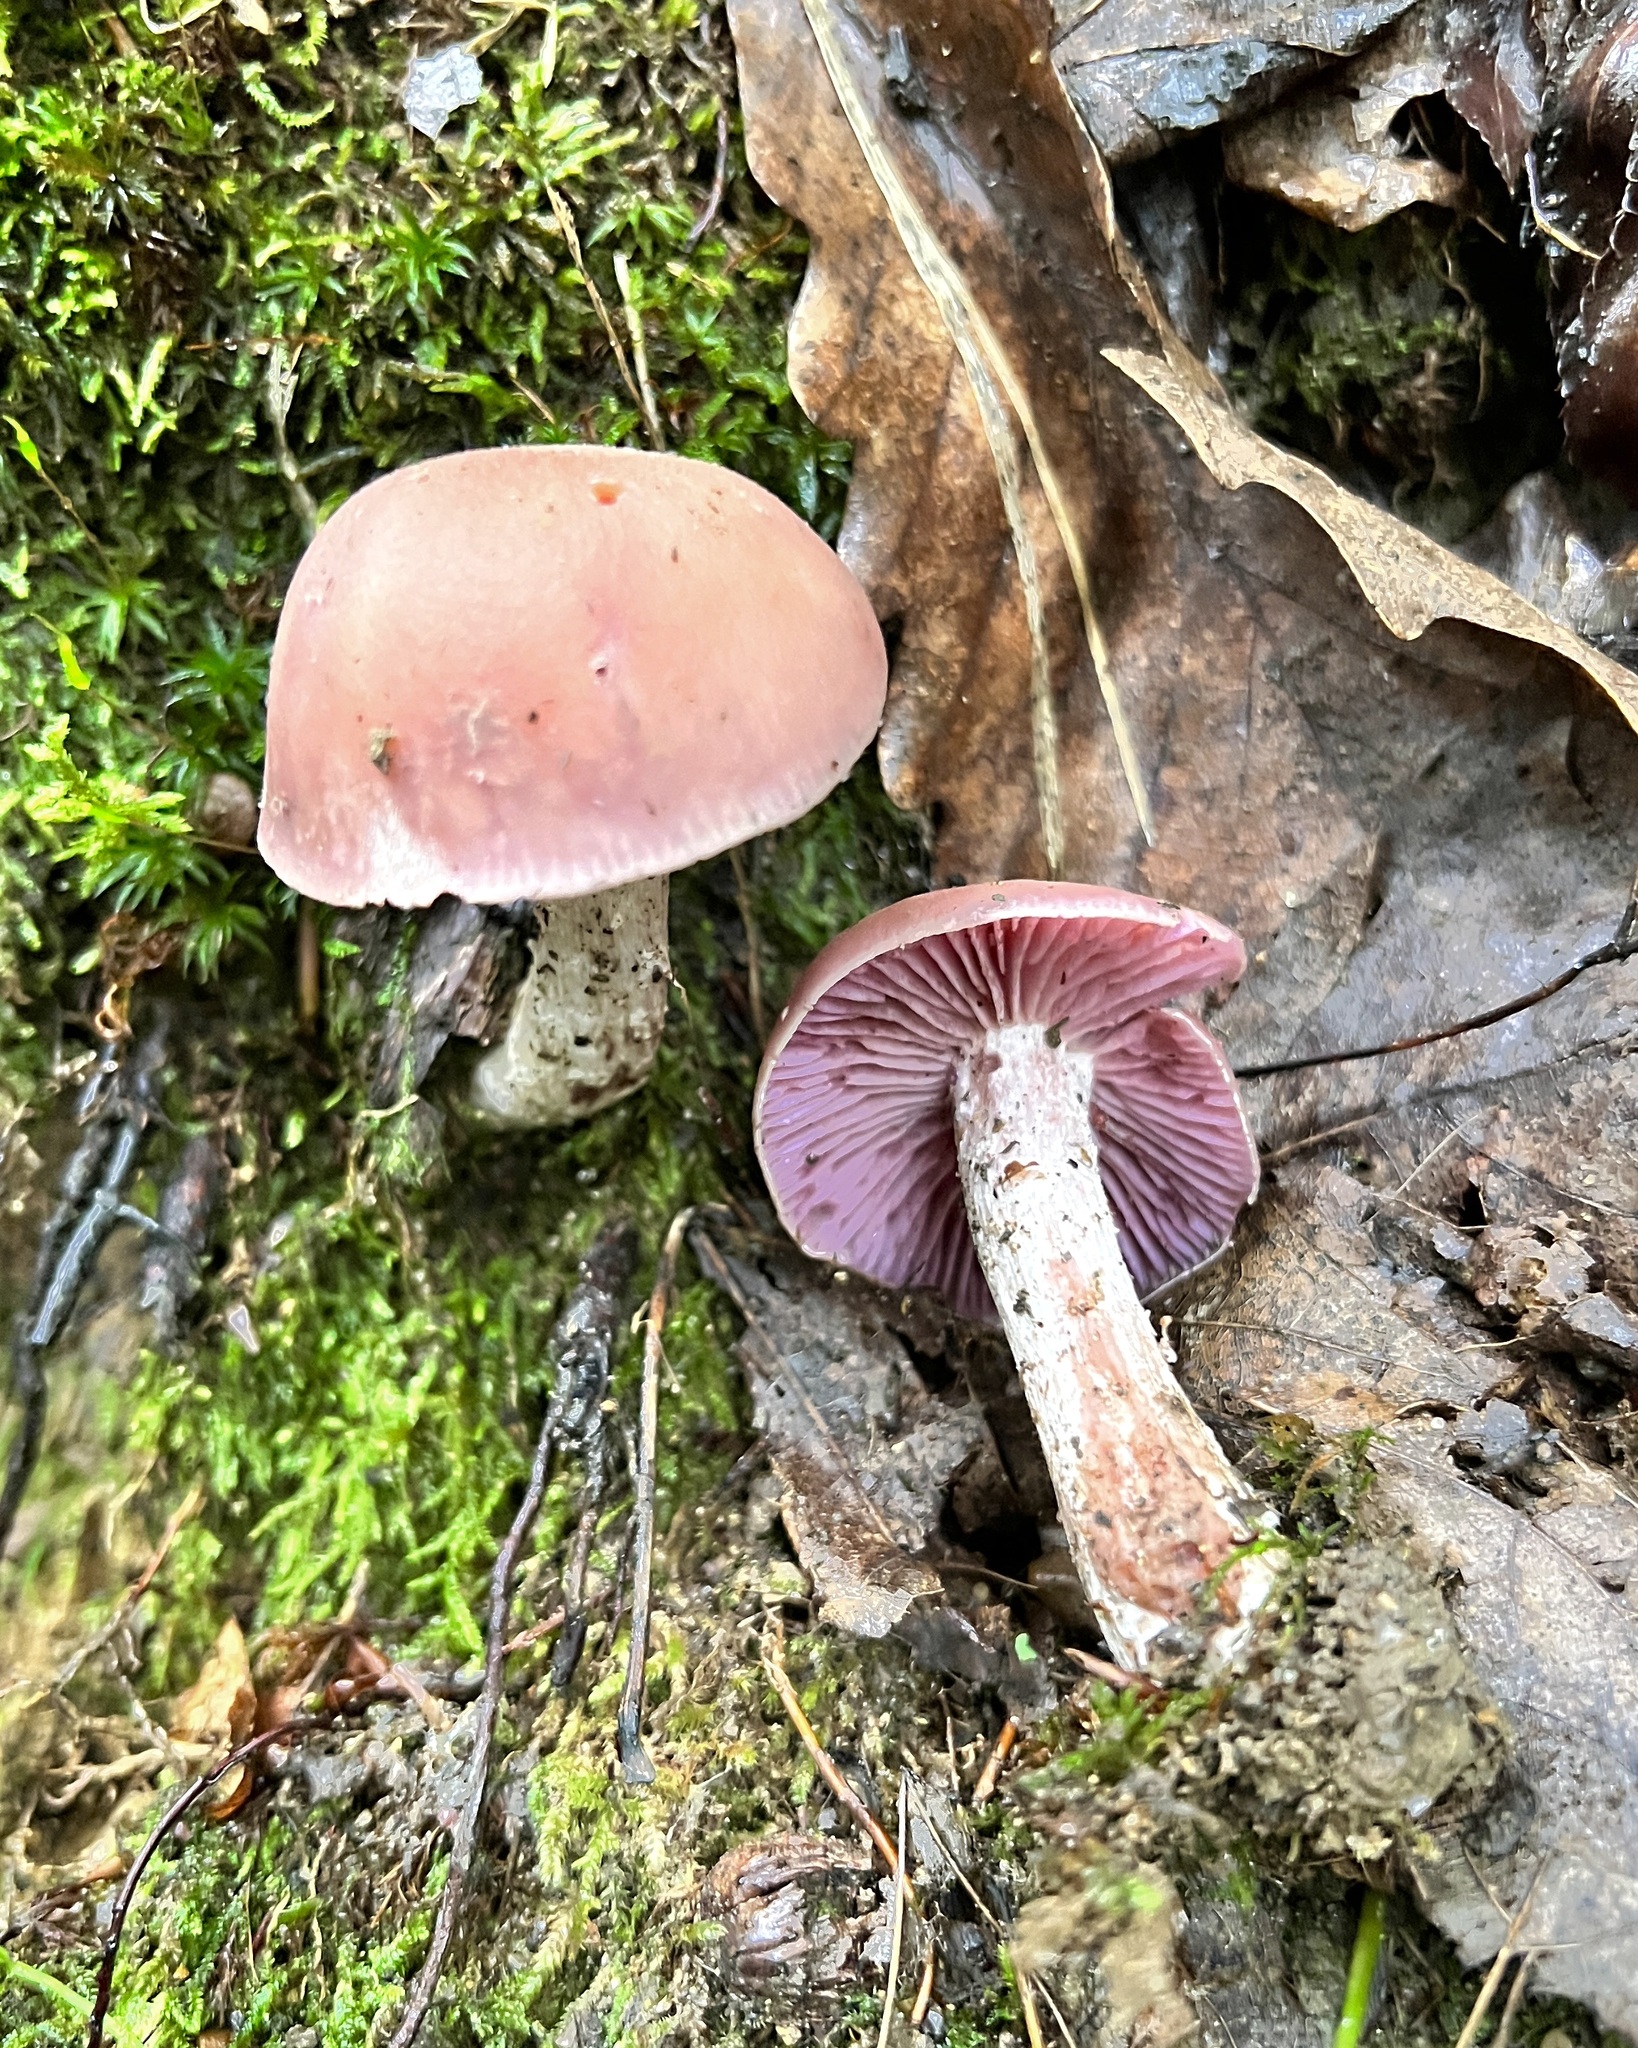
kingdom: Fungi
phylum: Basidiomycota
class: Agaricomycetes
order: Agaricales
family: Hydnangiaceae
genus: Laccaria
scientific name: Laccaria ochropurpurea
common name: Purple laccaria
